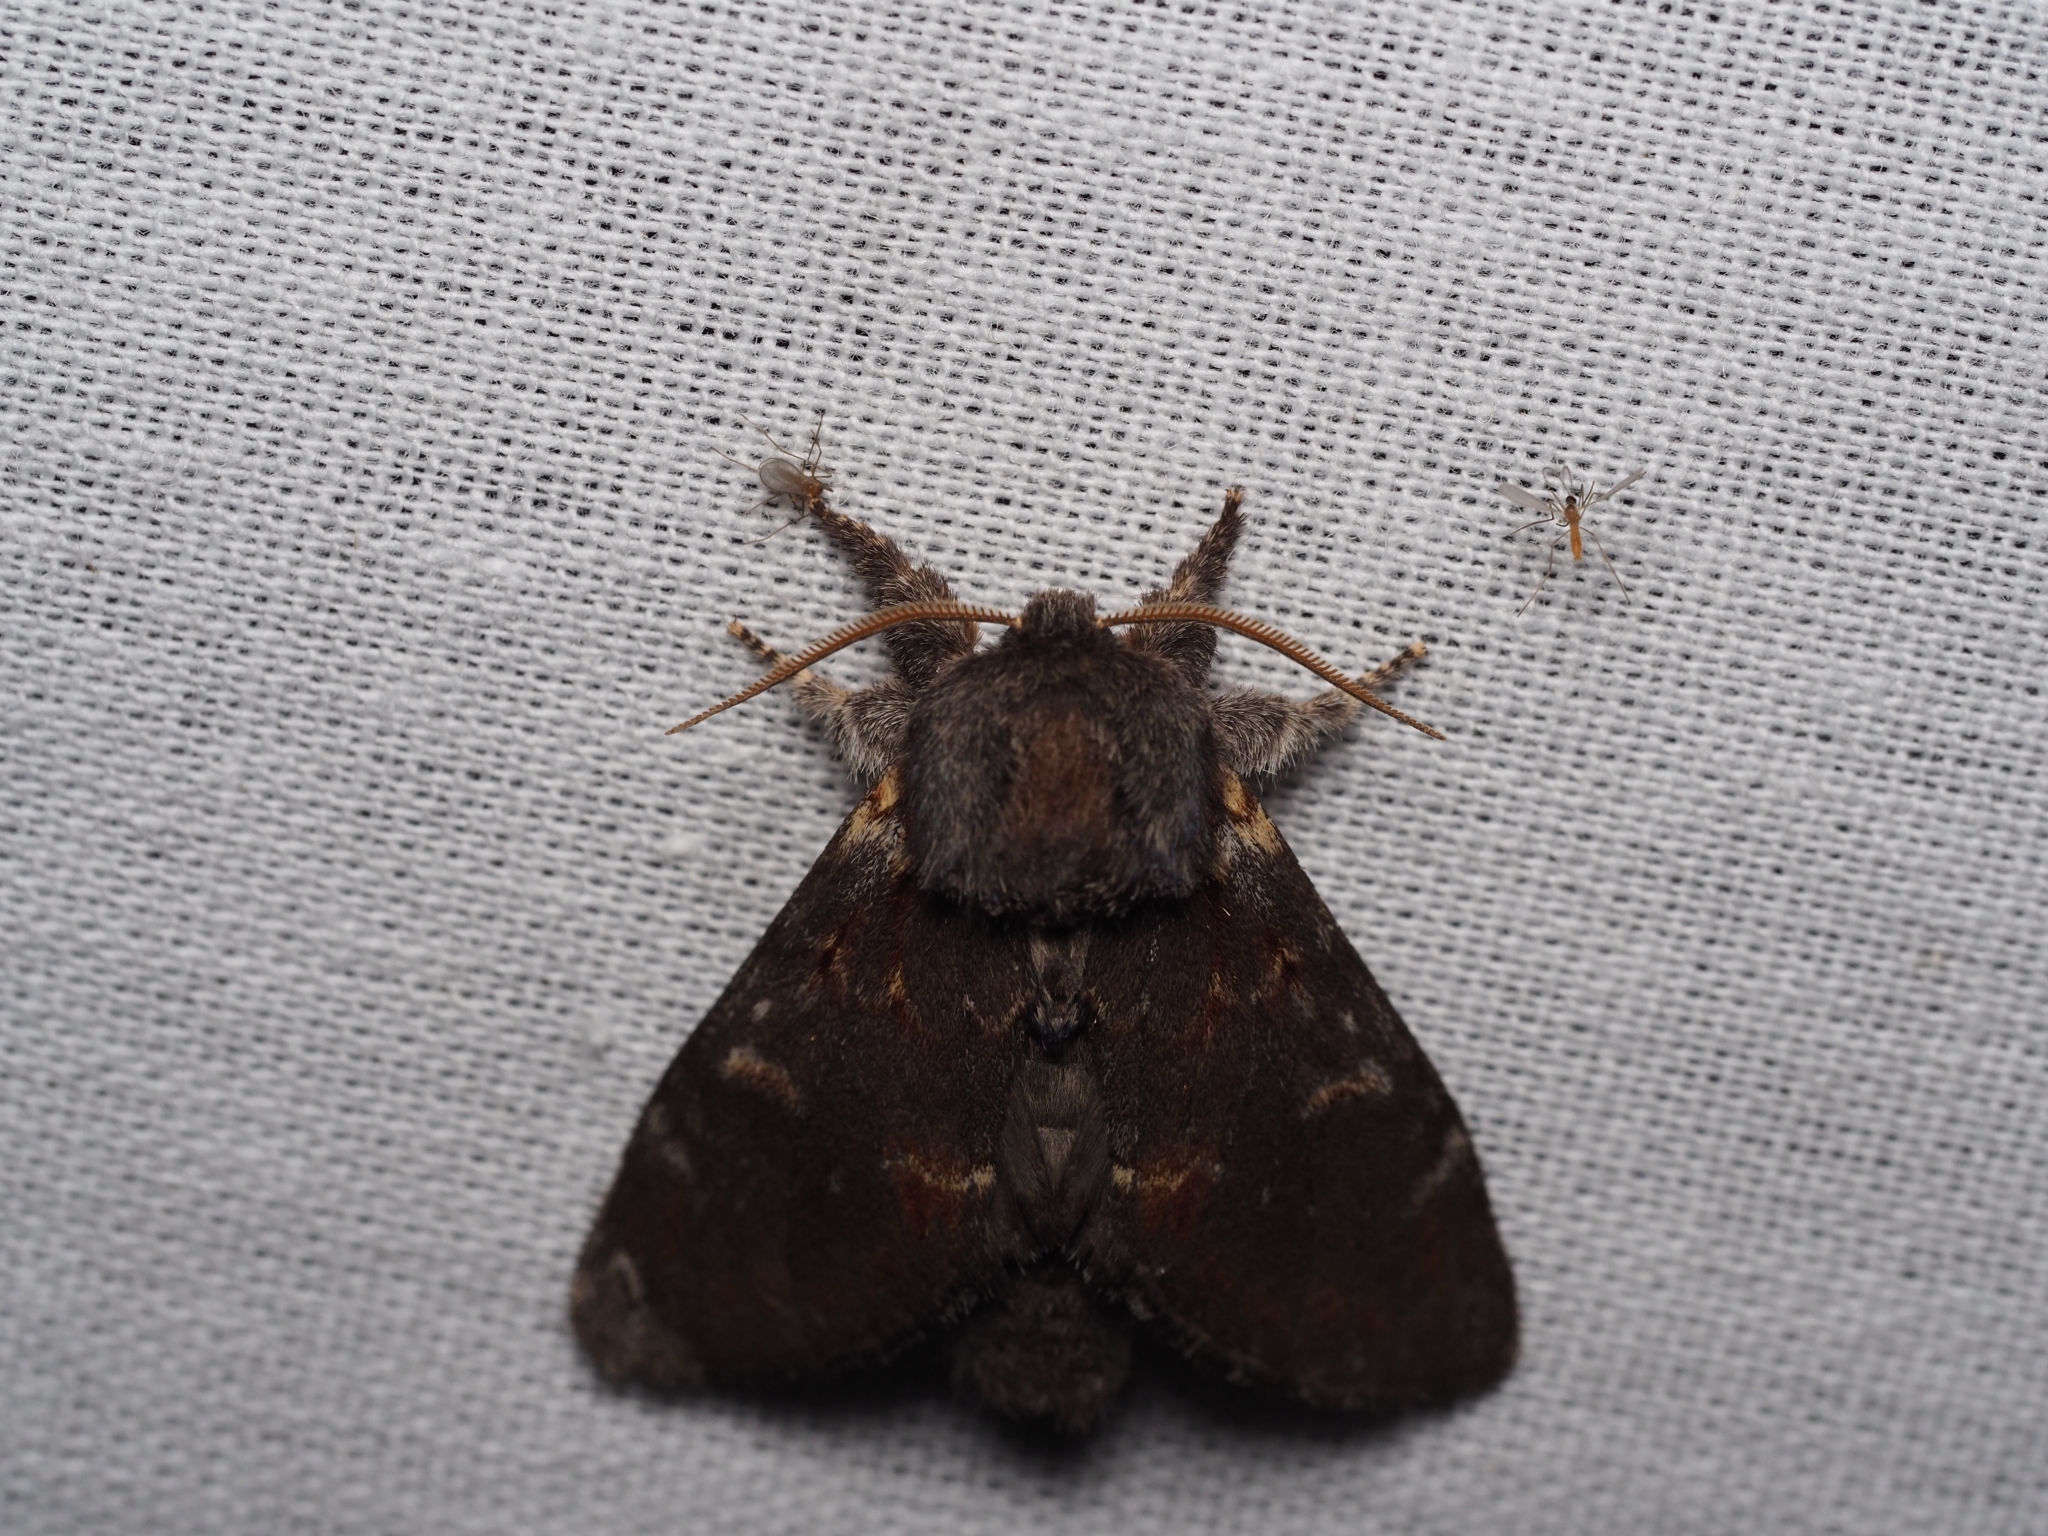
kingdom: Animalia
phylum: Arthropoda
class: Insecta
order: Lepidoptera
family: Notodontidae
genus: Notodonta
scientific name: Notodonta dromedarius
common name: Iron prominent
